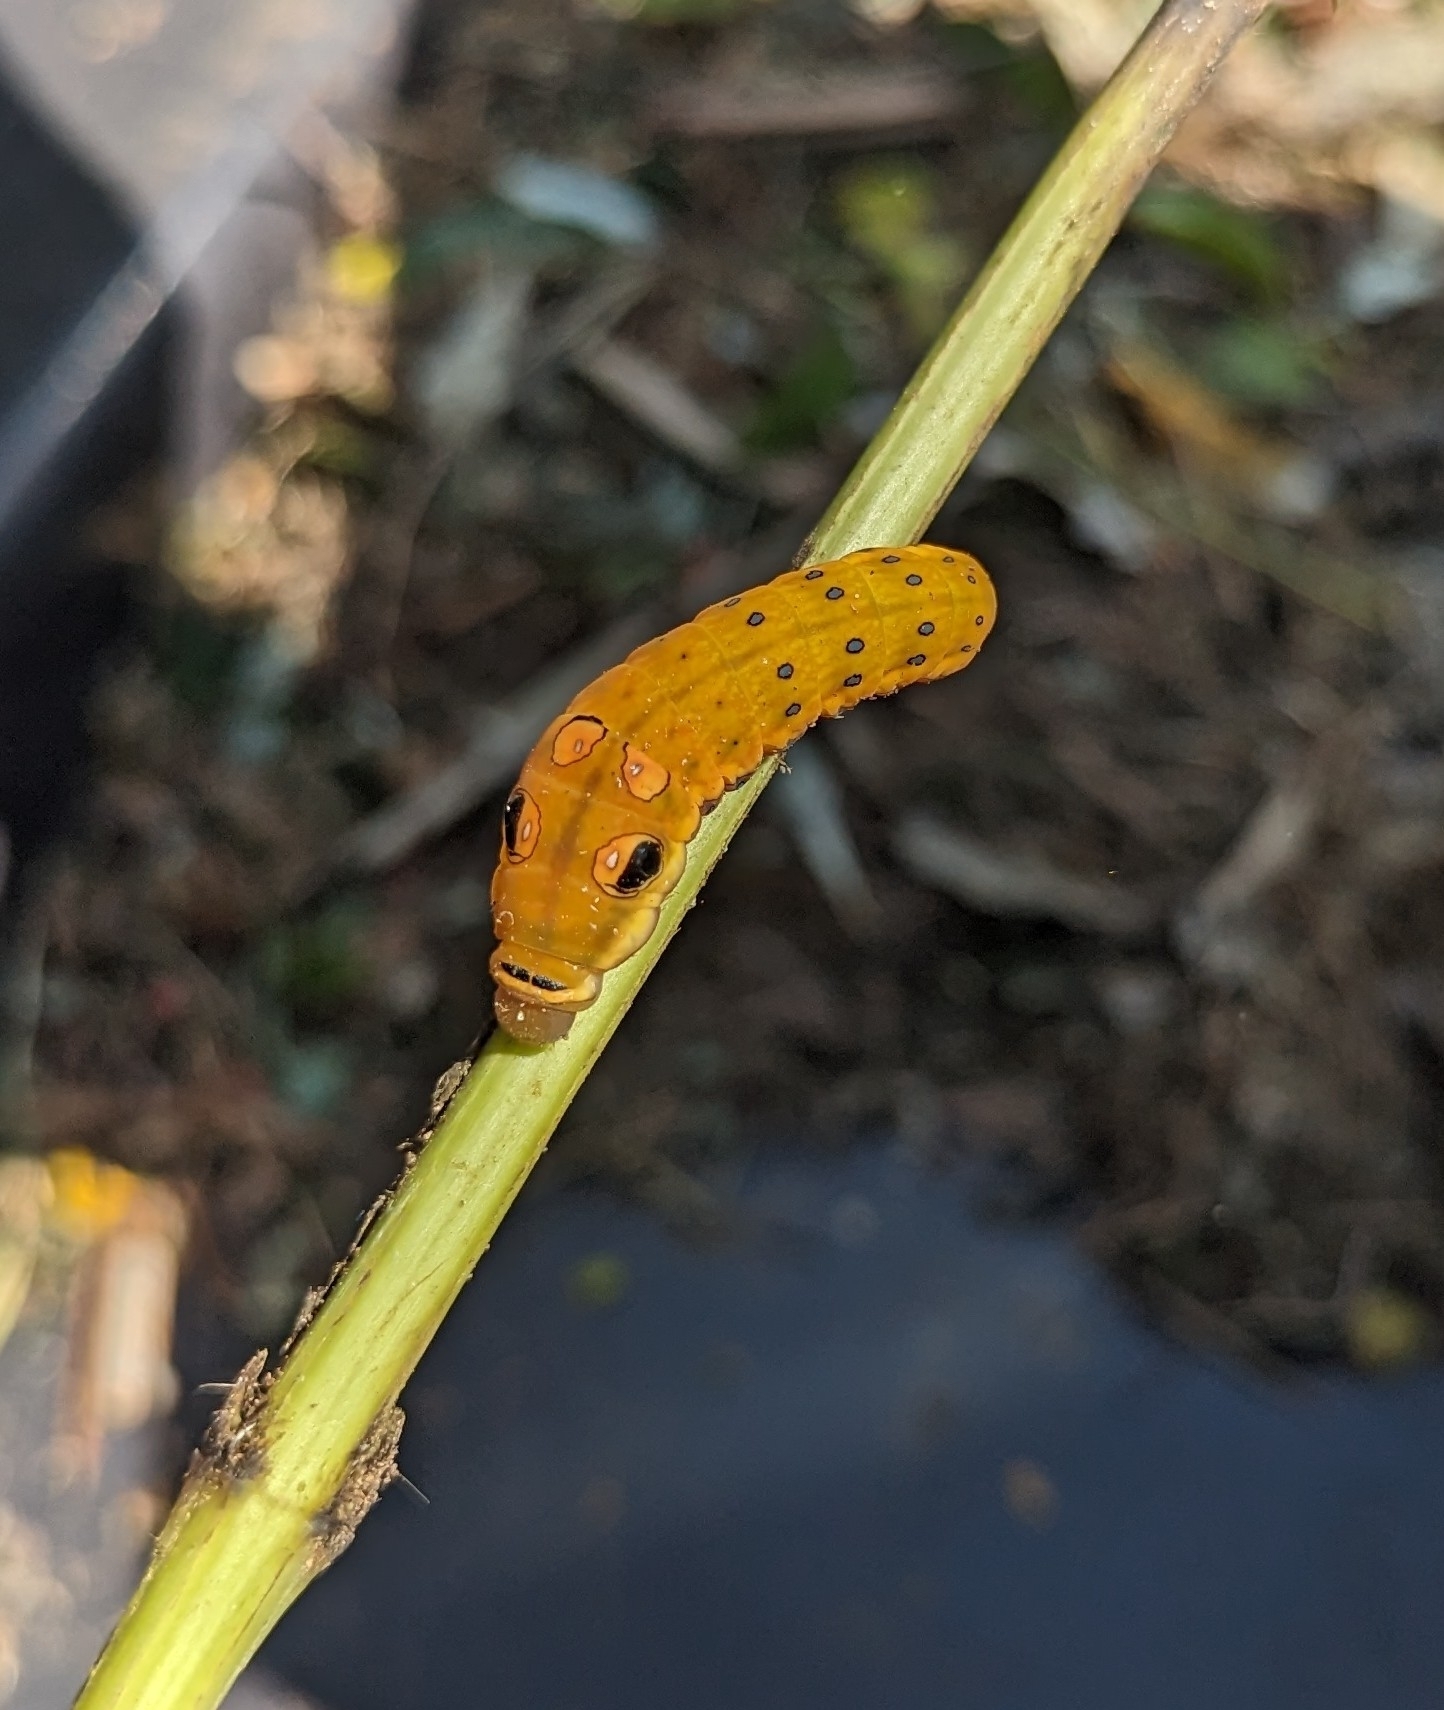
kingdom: Animalia
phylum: Arthropoda
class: Insecta
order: Lepidoptera
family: Papilionidae
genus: Papilio
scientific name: Papilio troilus
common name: Spicebush swallowtail
